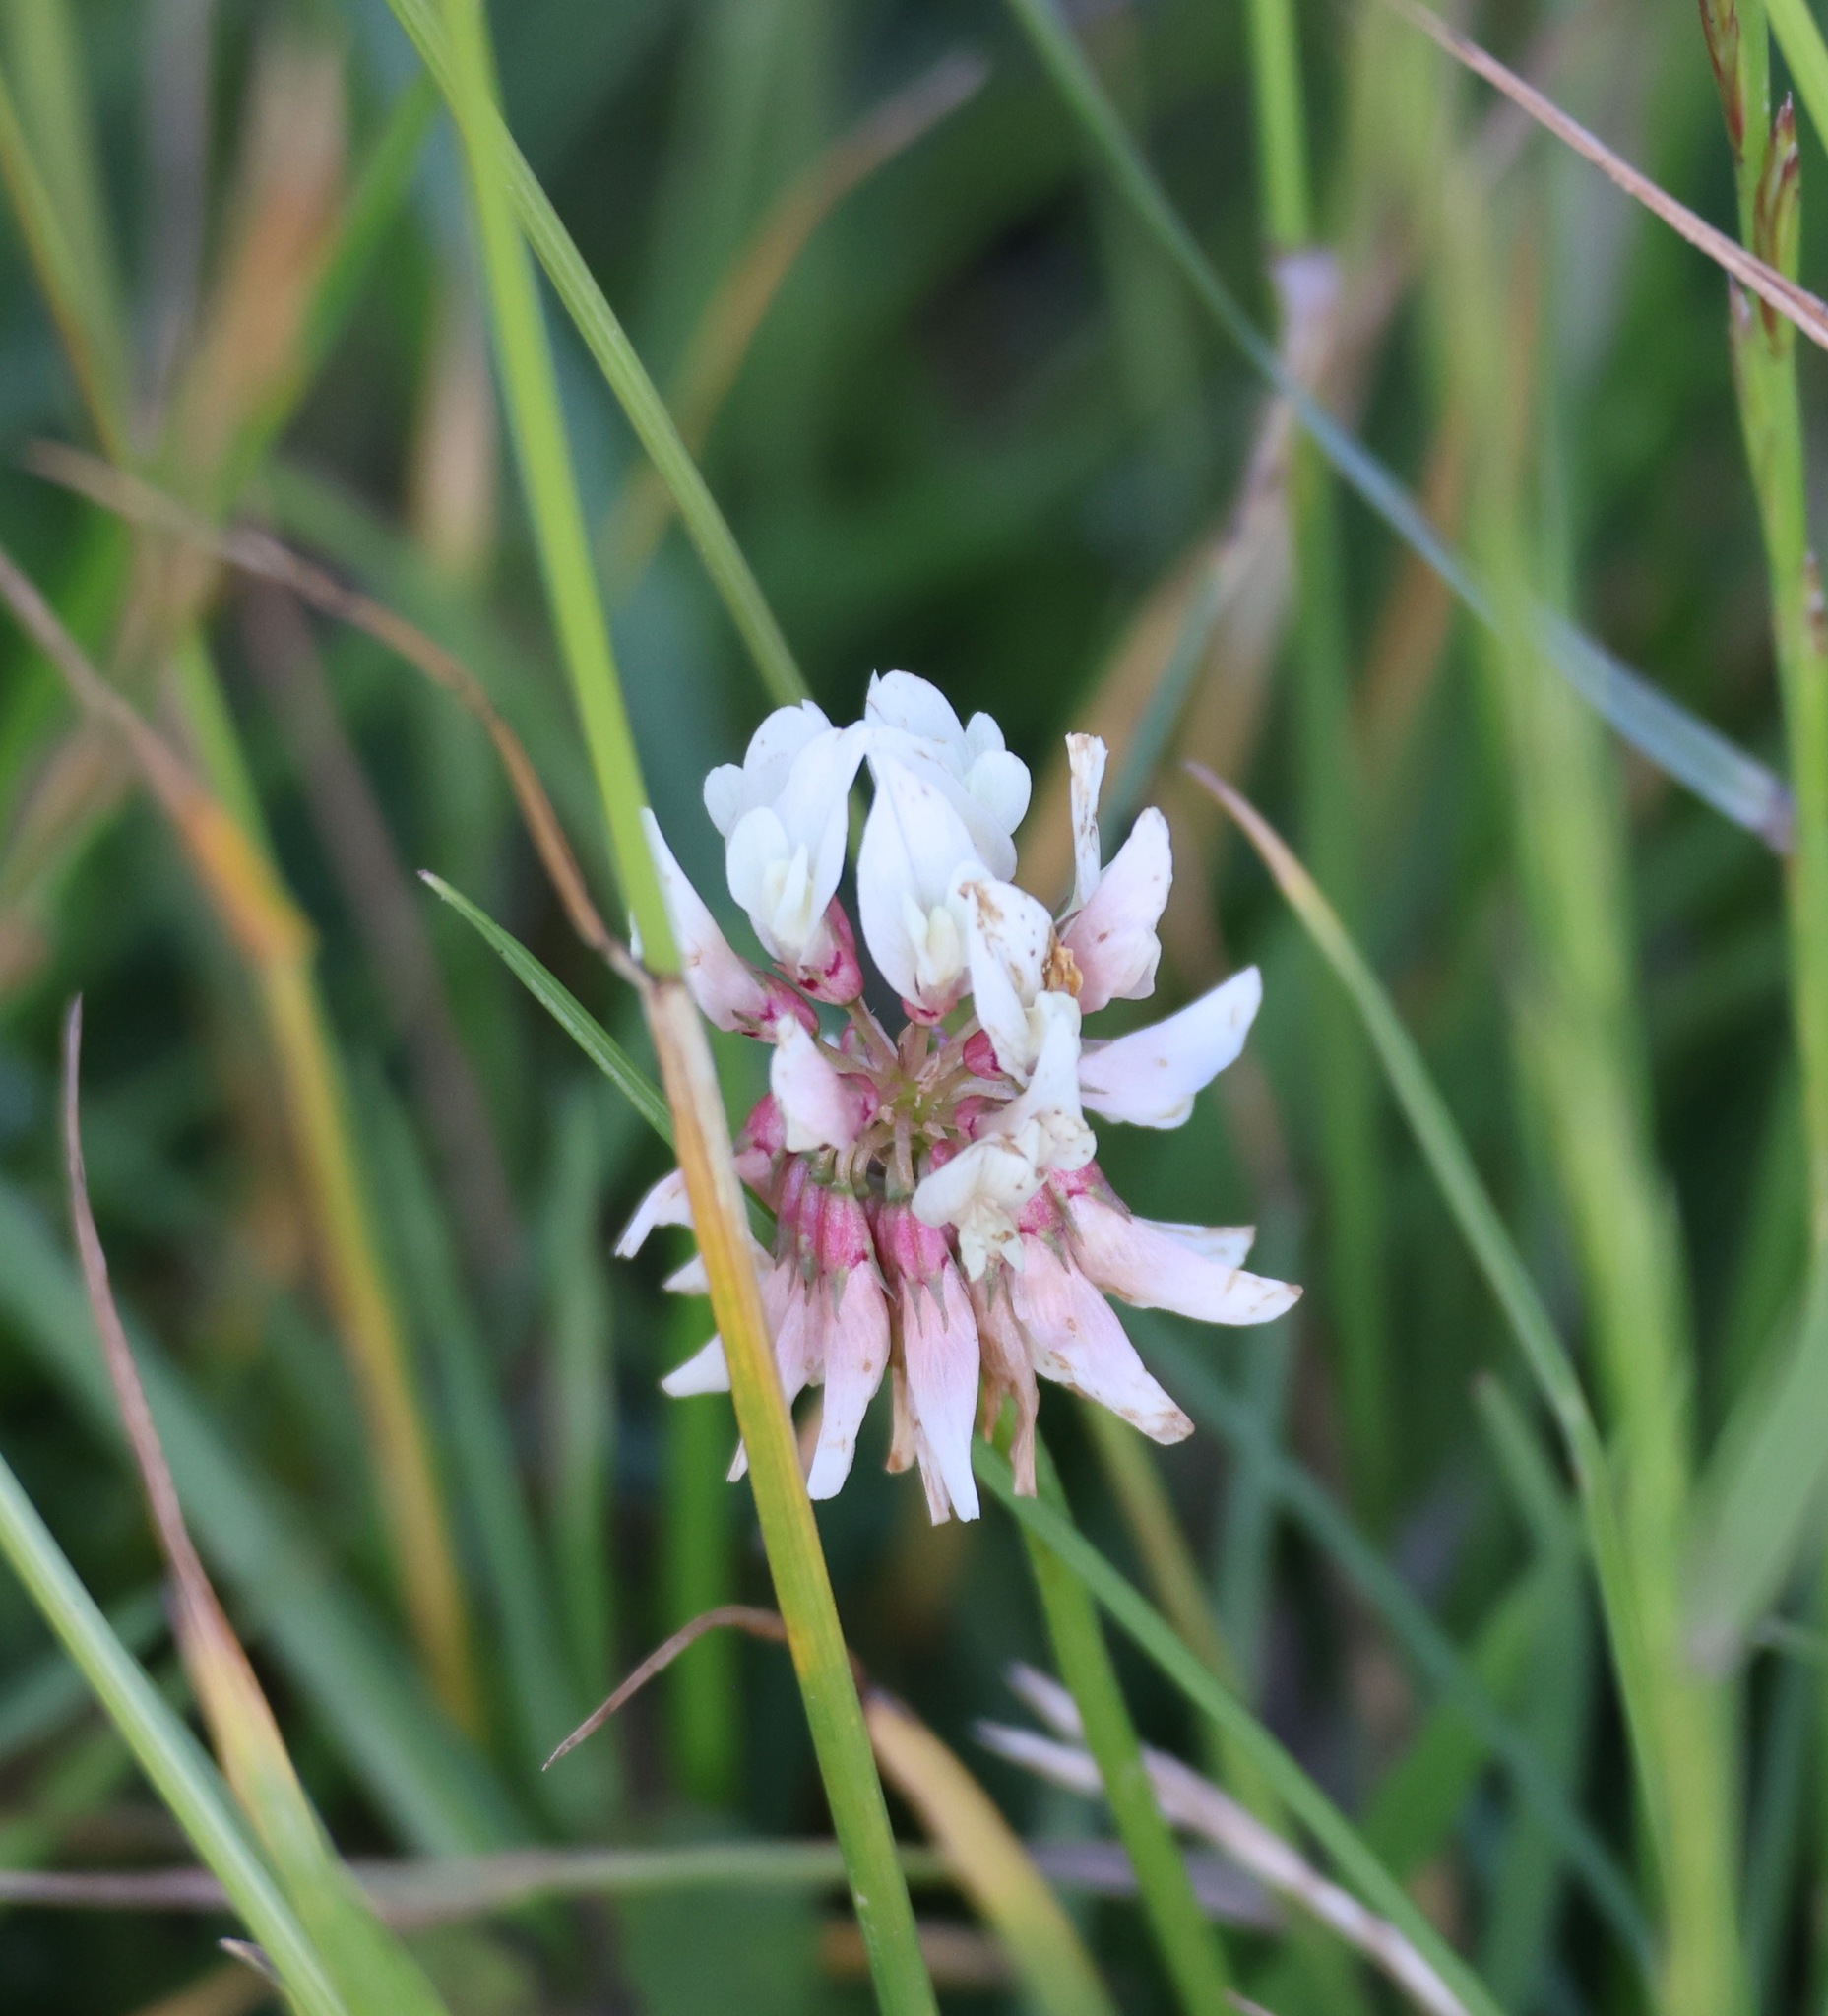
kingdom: Plantae
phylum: Tracheophyta
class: Magnoliopsida
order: Fabales
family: Fabaceae
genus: Trifolium
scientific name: Trifolium repens
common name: White clover
